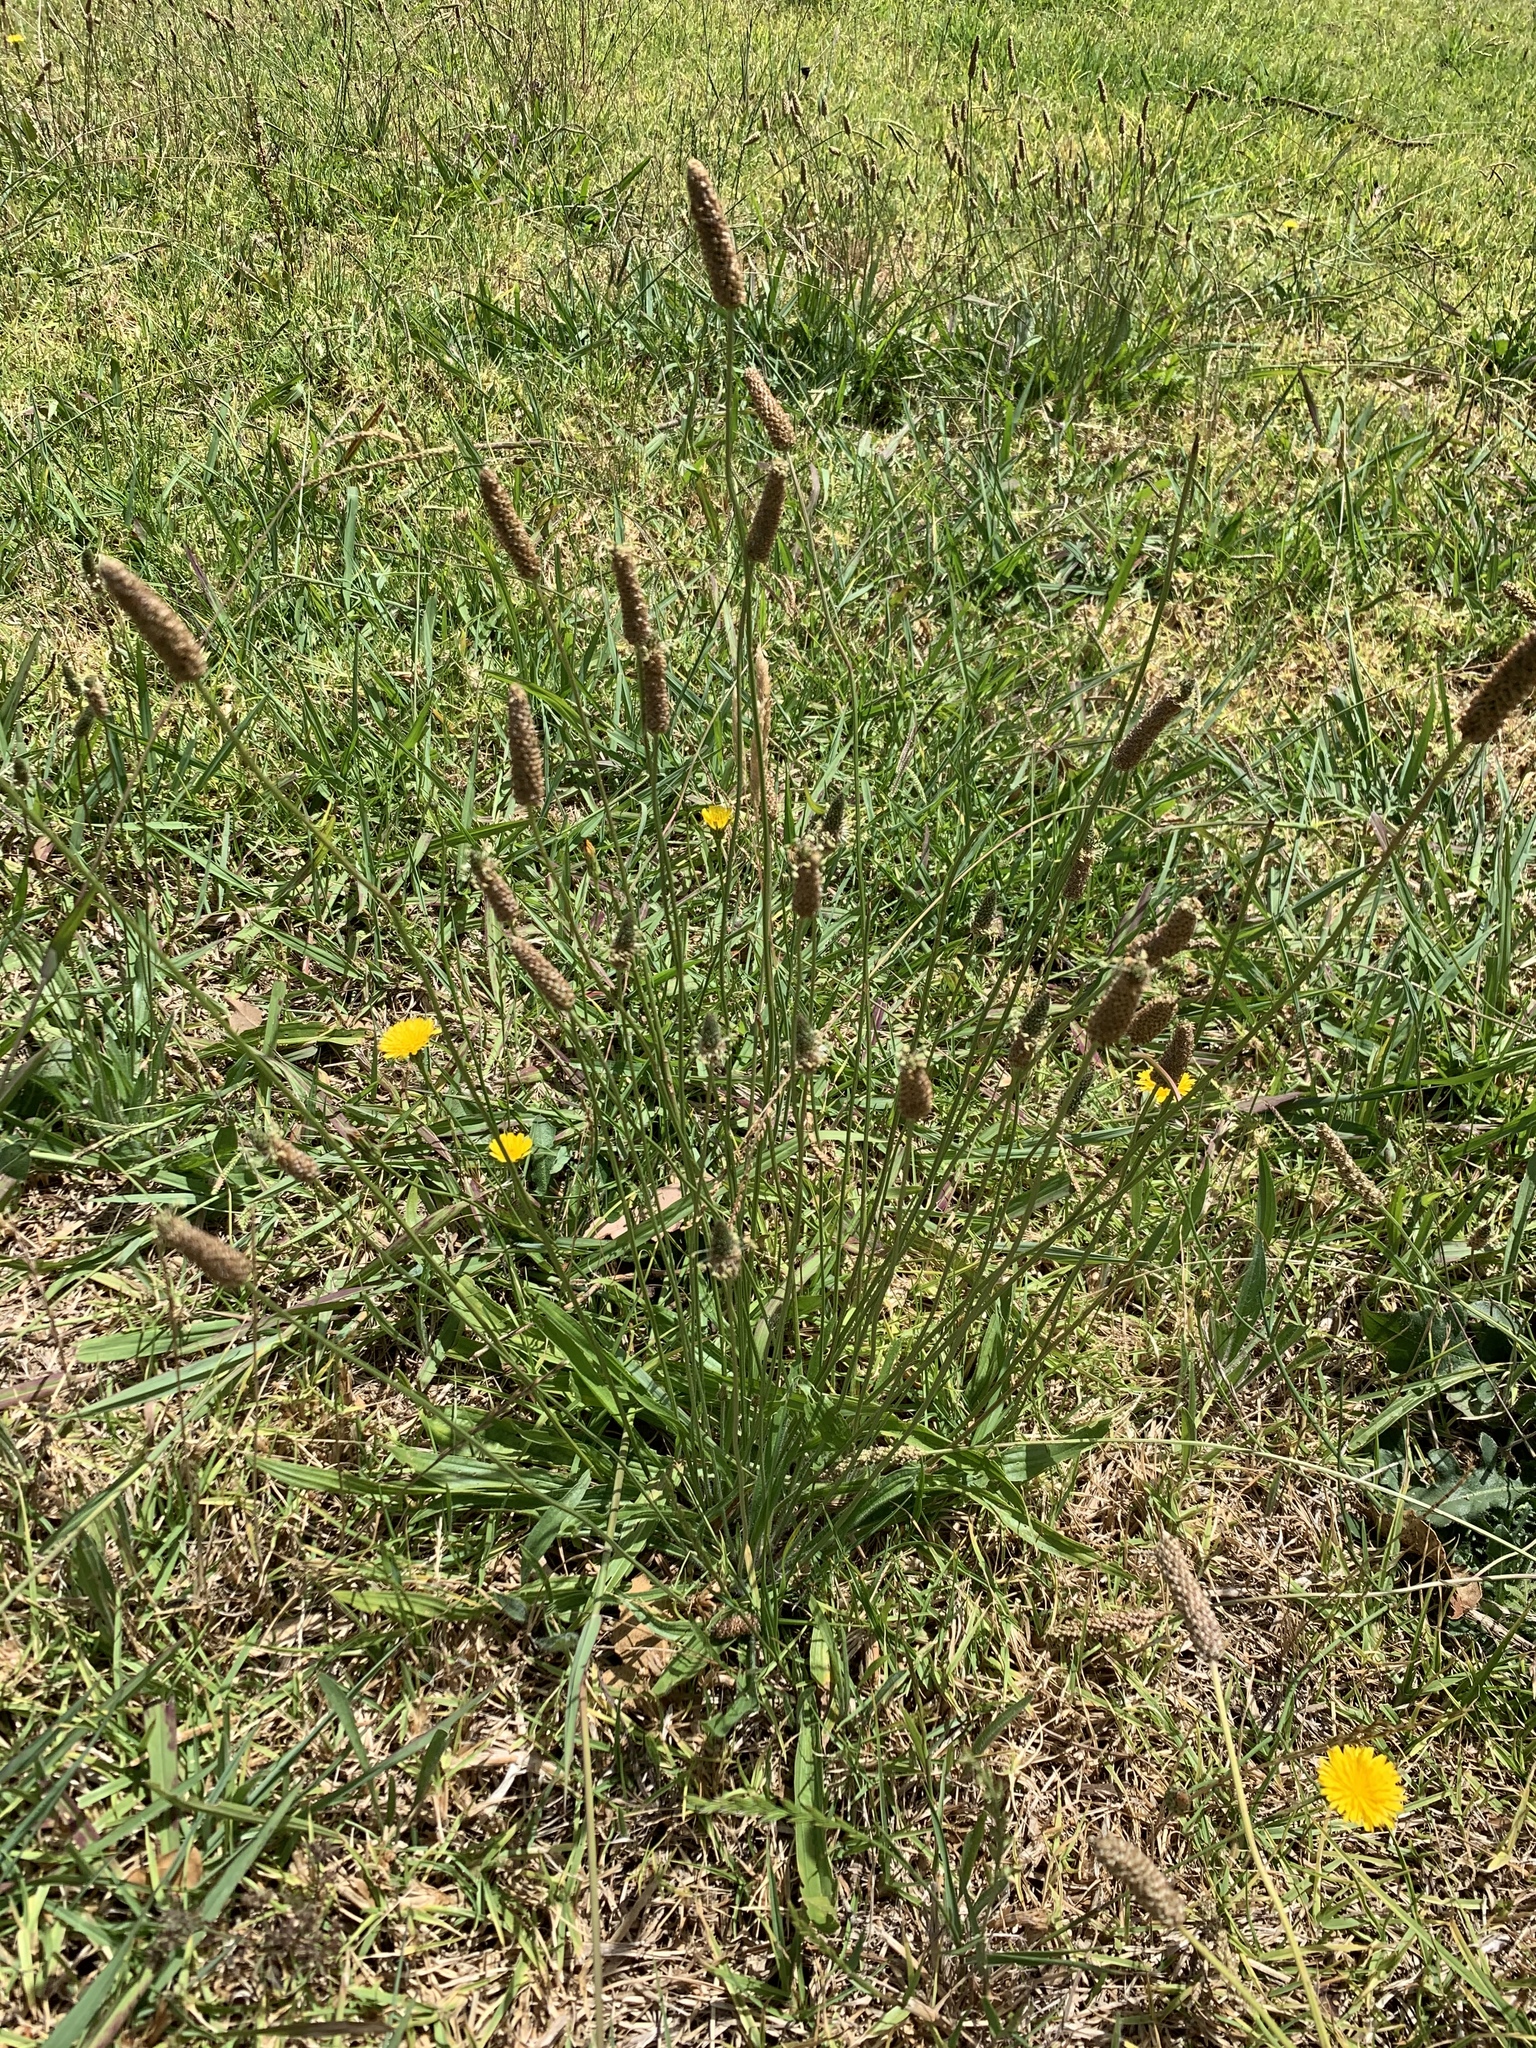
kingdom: Plantae
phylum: Tracheophyta
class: Magnoliopsida
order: Lamiales
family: Plantaginaceae
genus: Plantago
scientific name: Plantago lanceolata
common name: Ribwort plantain
